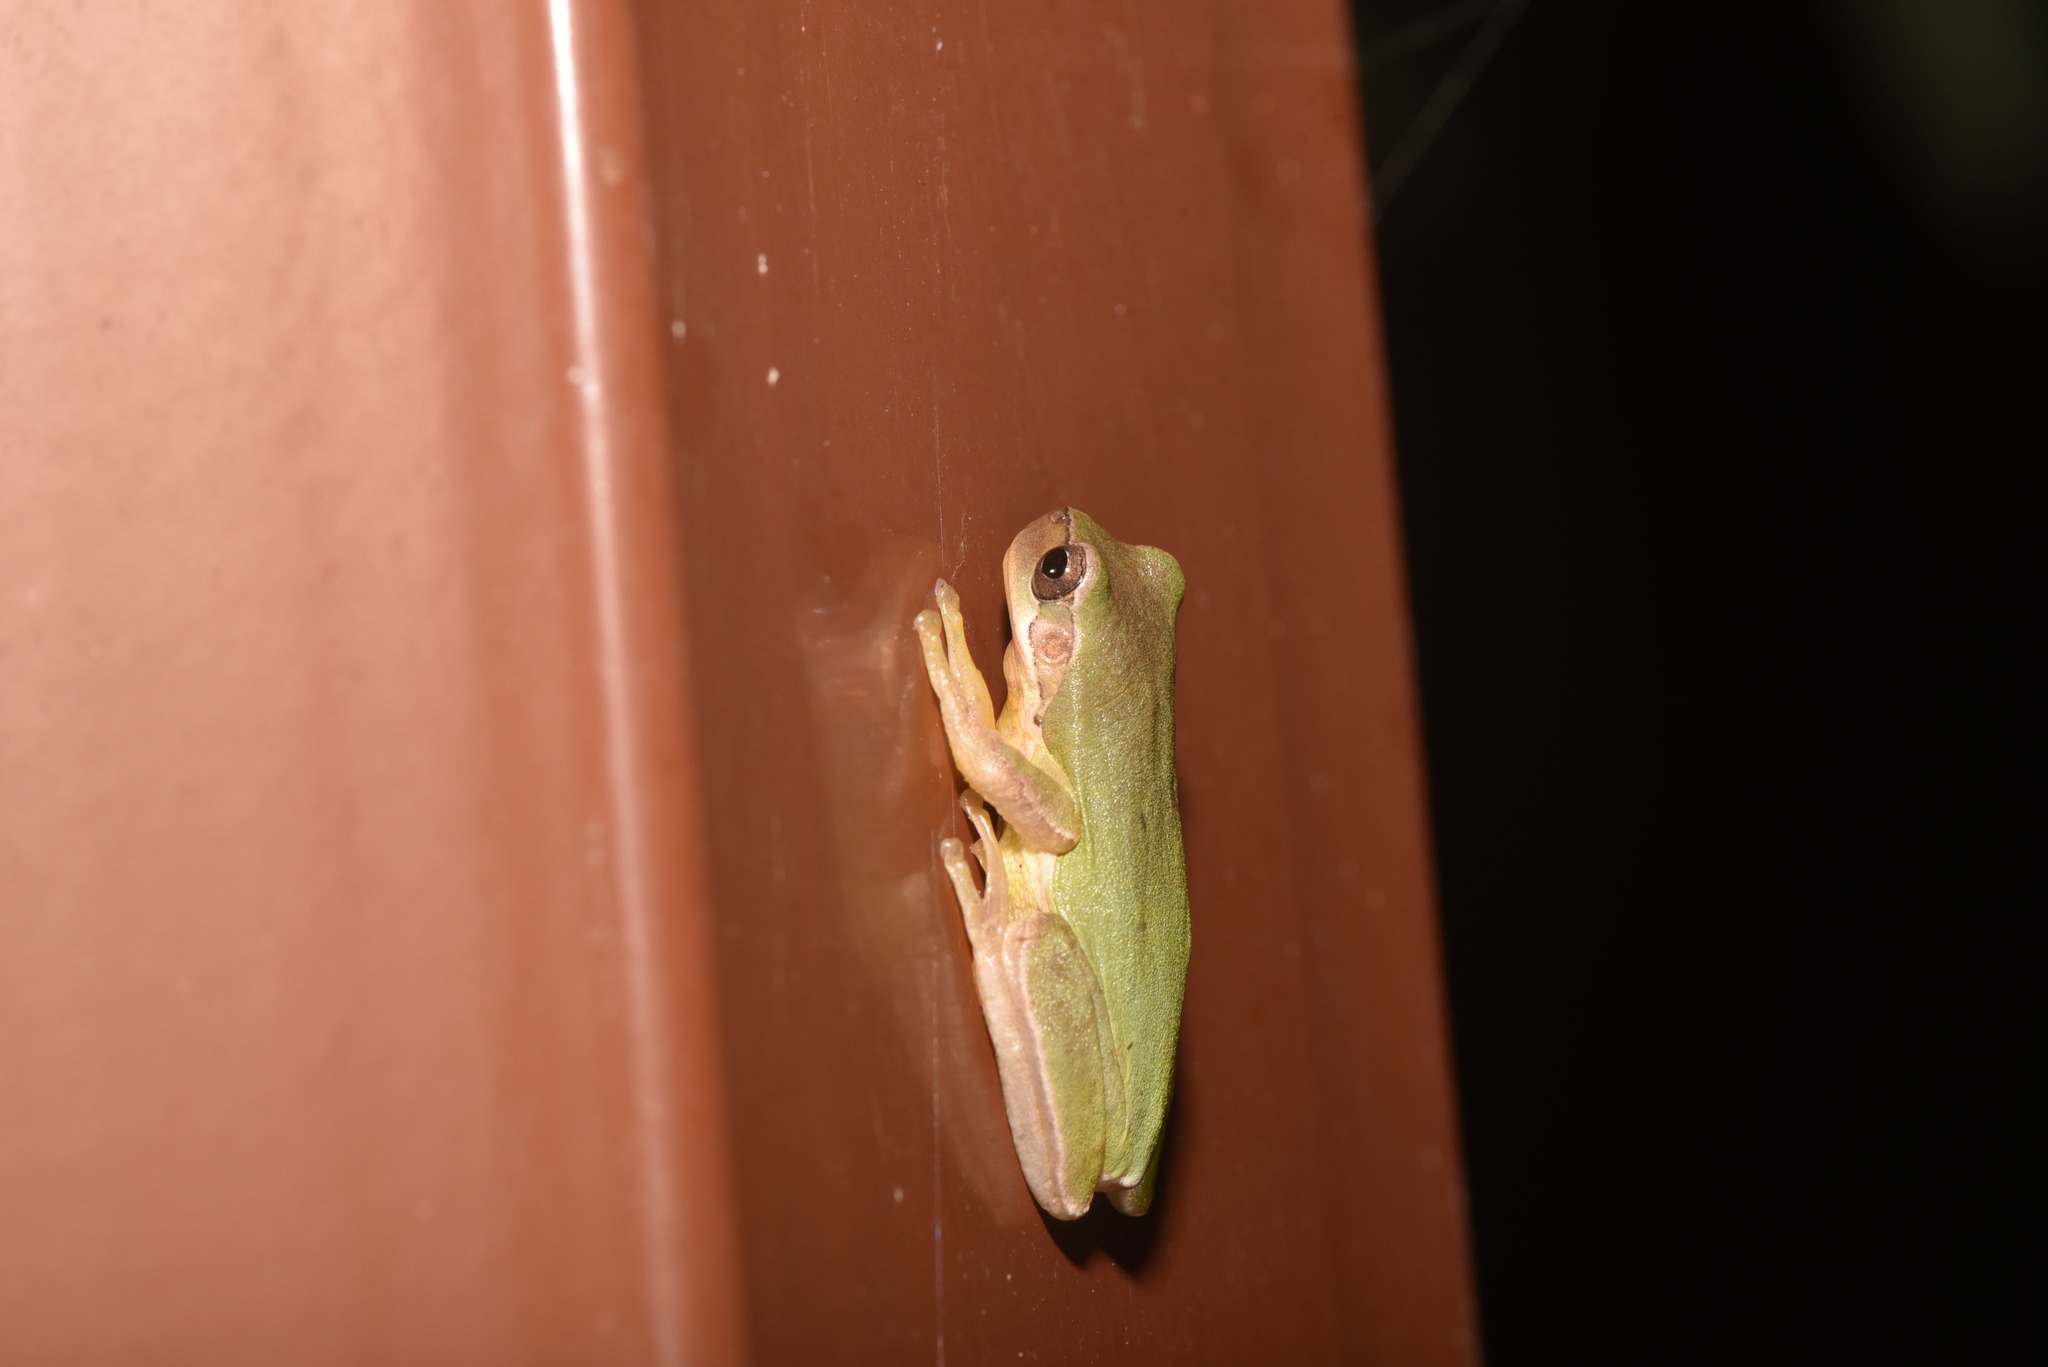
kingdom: Animalia
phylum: Chordata
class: Amphibia
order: Anura
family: Hylidae
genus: Hyla
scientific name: Hyla chinensis
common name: Common chinese treefrog
